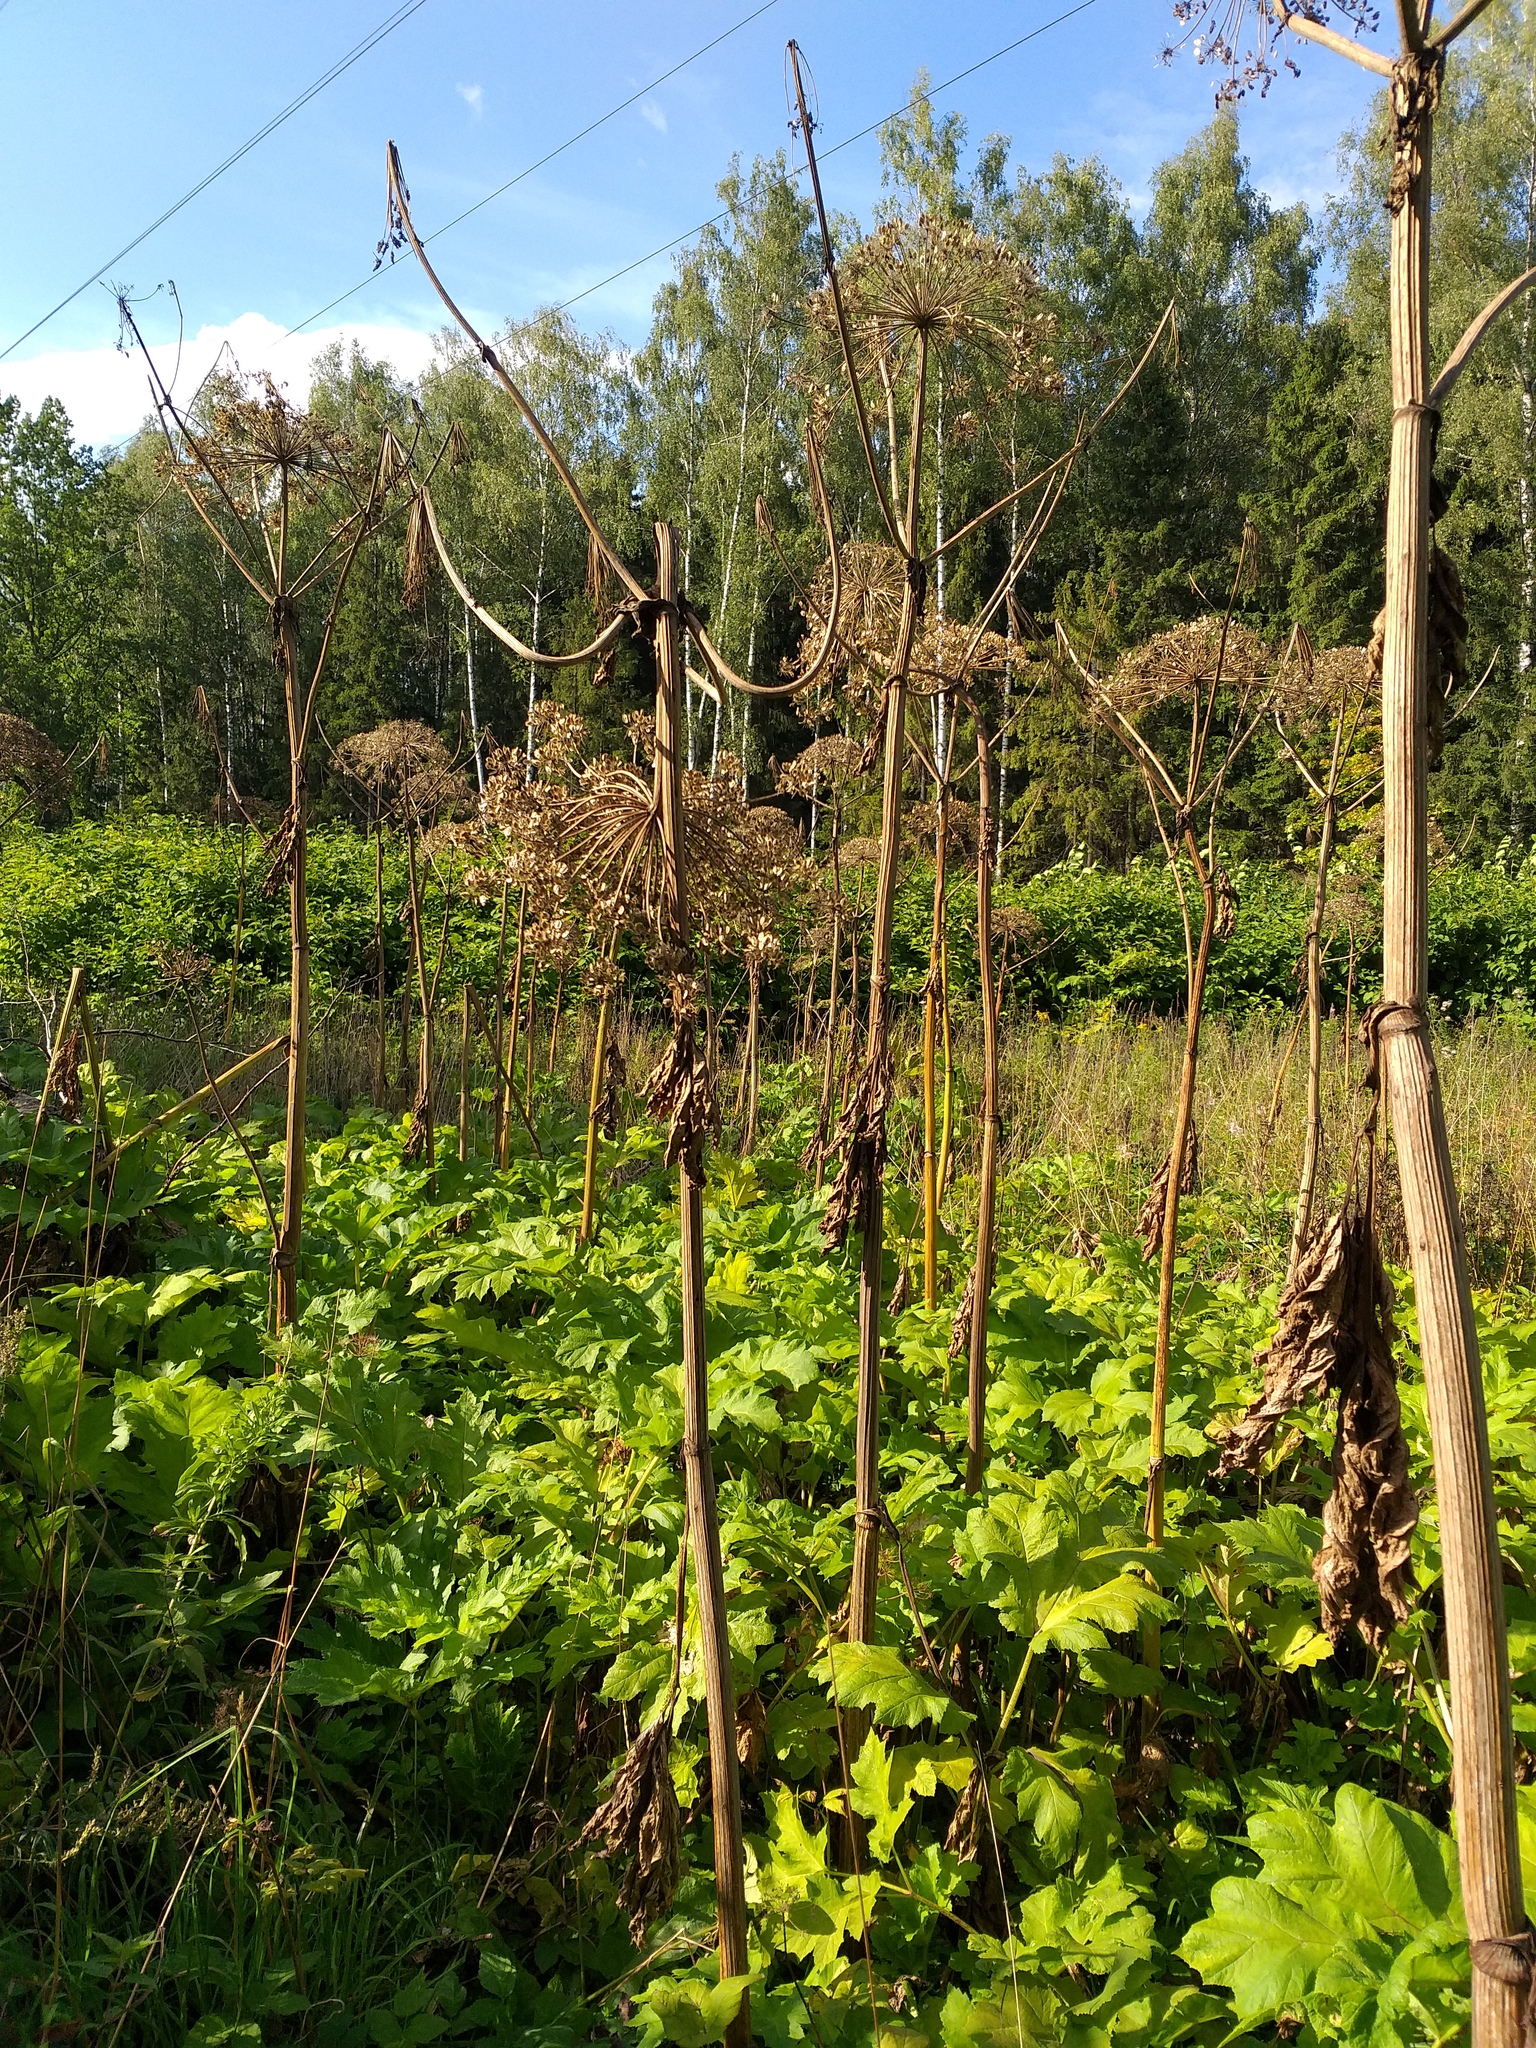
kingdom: Plantae
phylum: Tracheophyta
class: Magnoliopsida
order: Apiales
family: Apiaceae
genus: Heracleum
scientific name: Heracleum sosnowskyi
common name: Sosnowsky's hogweed
